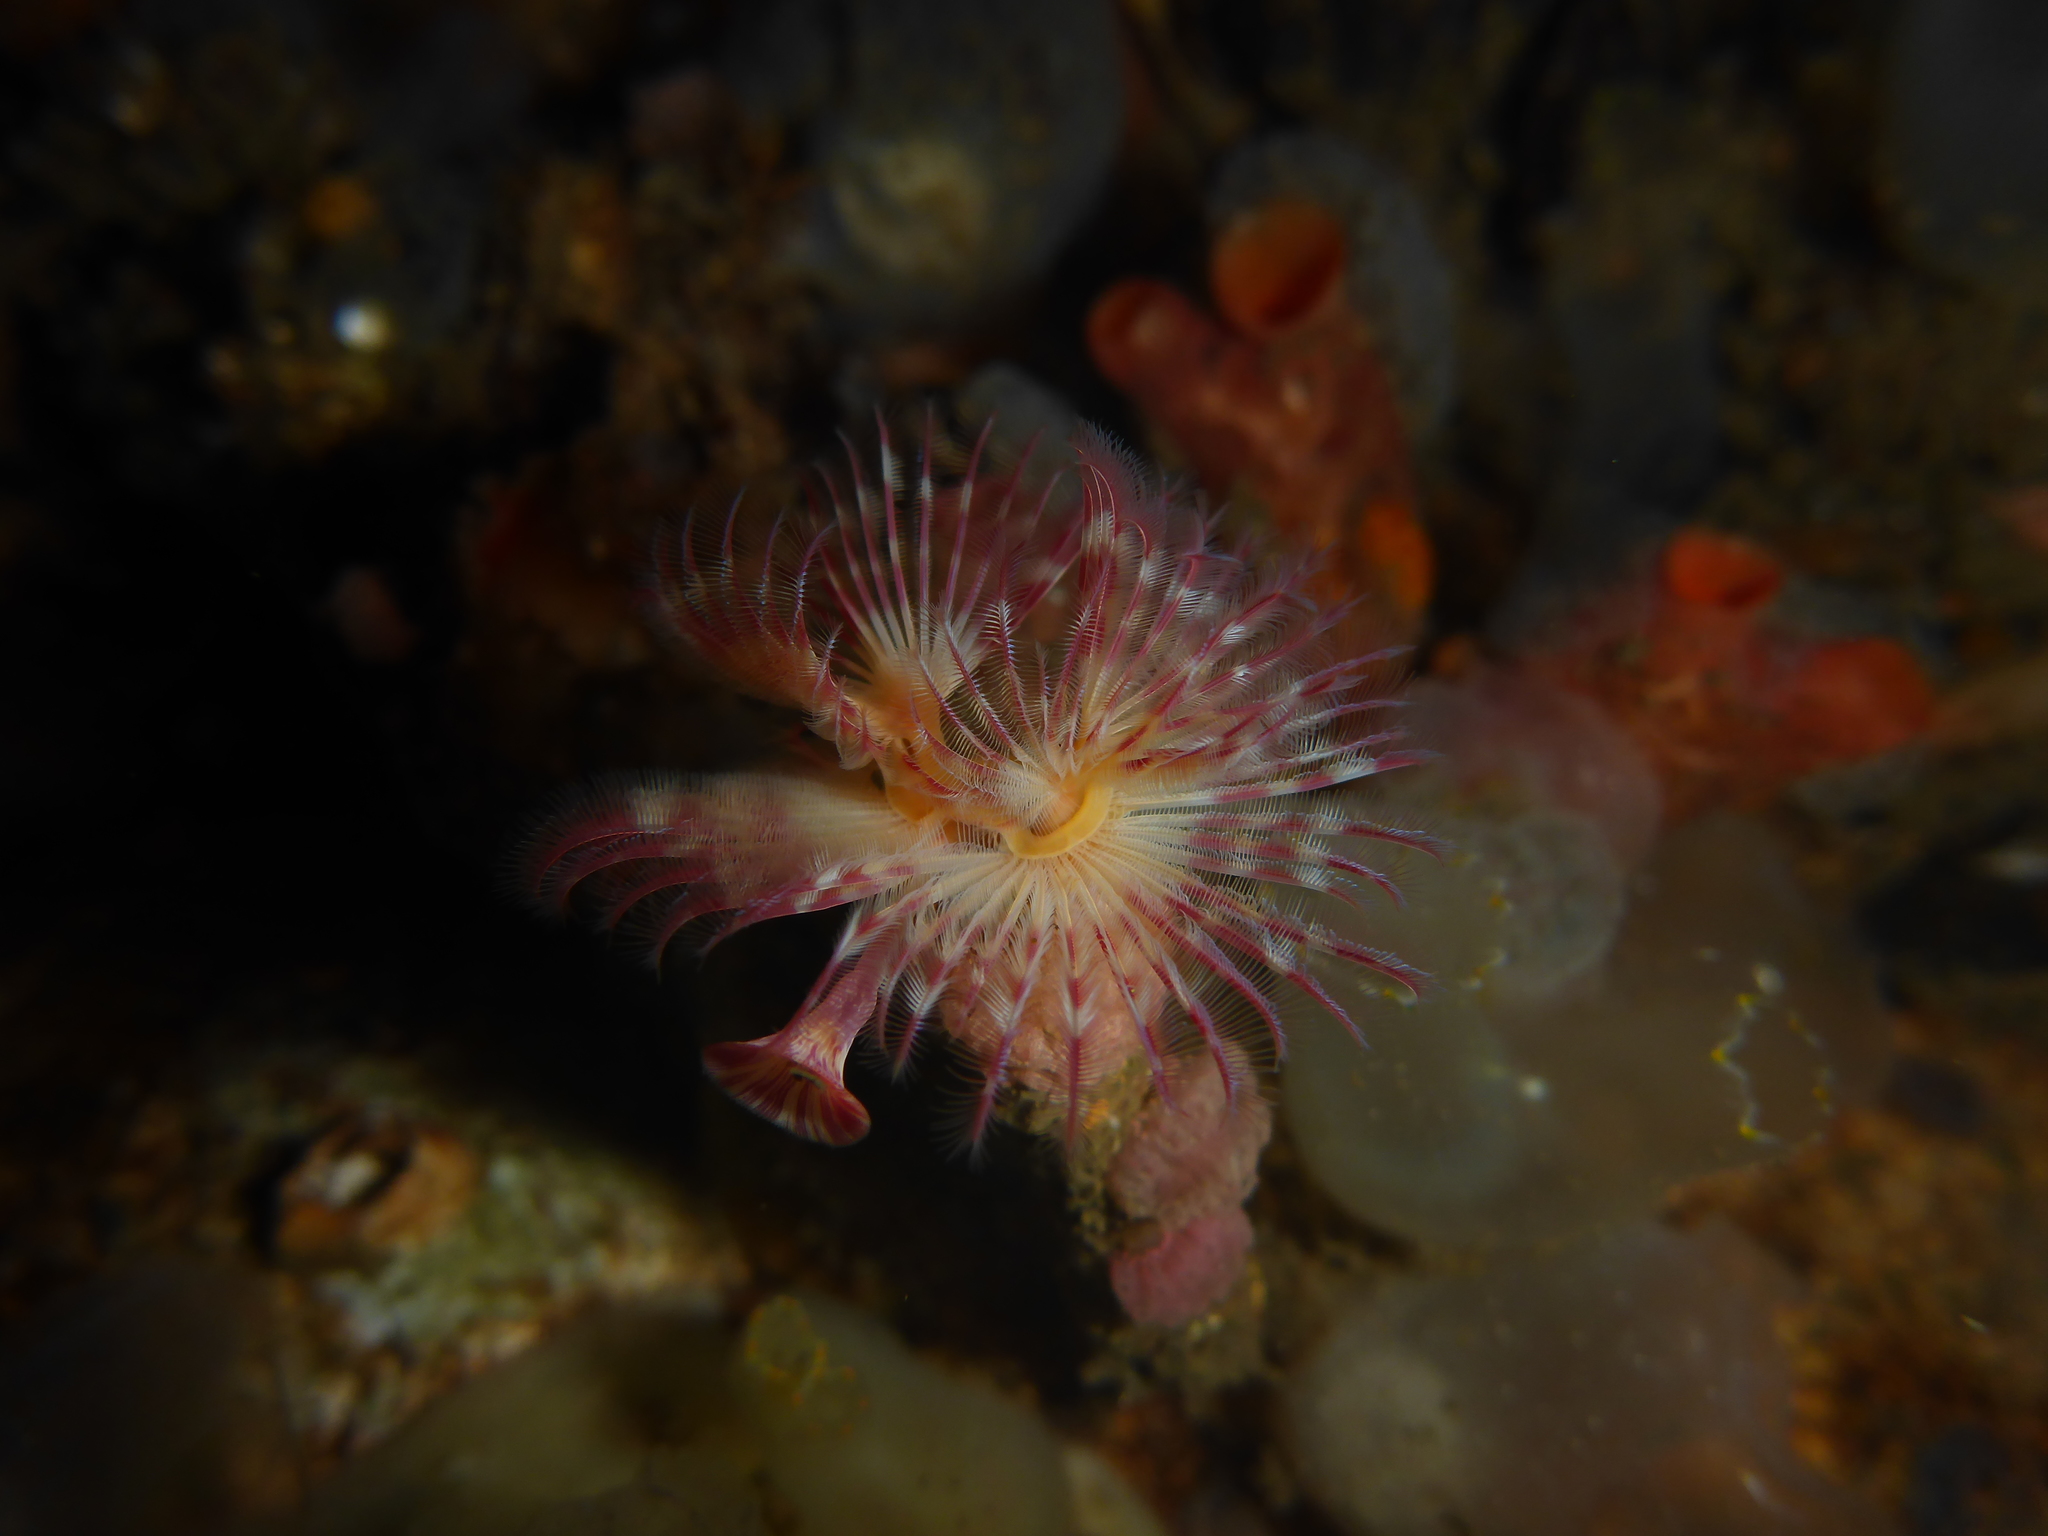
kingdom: Animalia
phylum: Annelida
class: Polychaeta
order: Sabellida
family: Serpulidae
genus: Serpula
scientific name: Serpula columbiana
